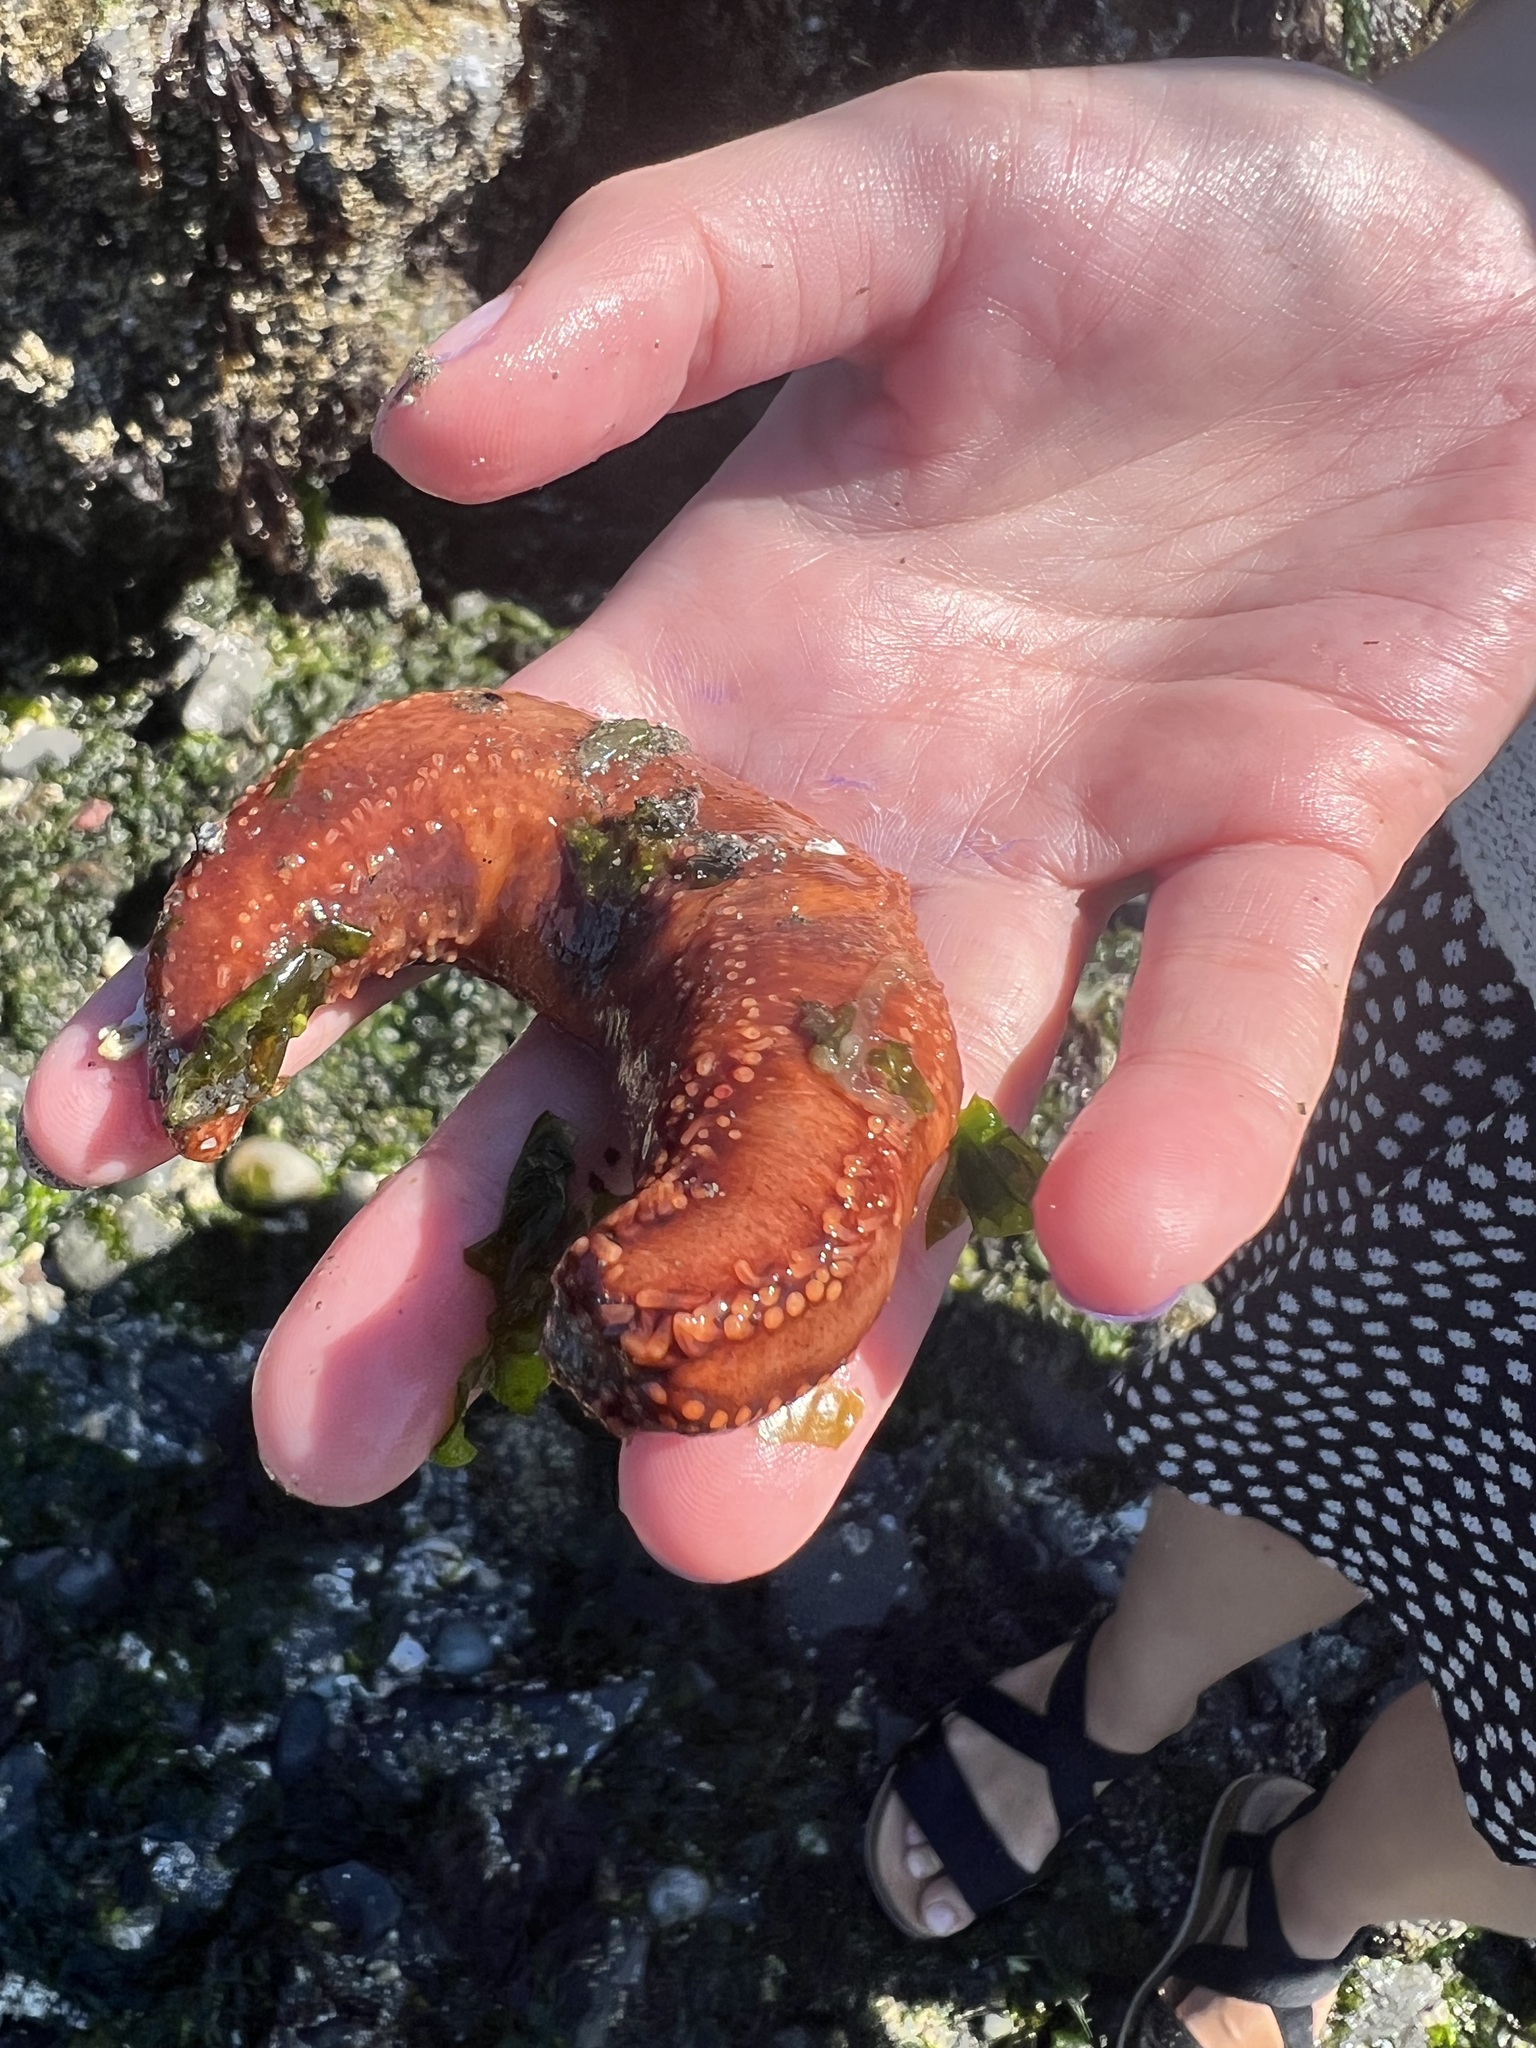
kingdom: Animalia
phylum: Echinodermata
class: Holothuroidea
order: Dendrochirotida
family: Cucumariidae
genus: Cucumaria
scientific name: Cucumaria miniata
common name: Orange sea cucumber
